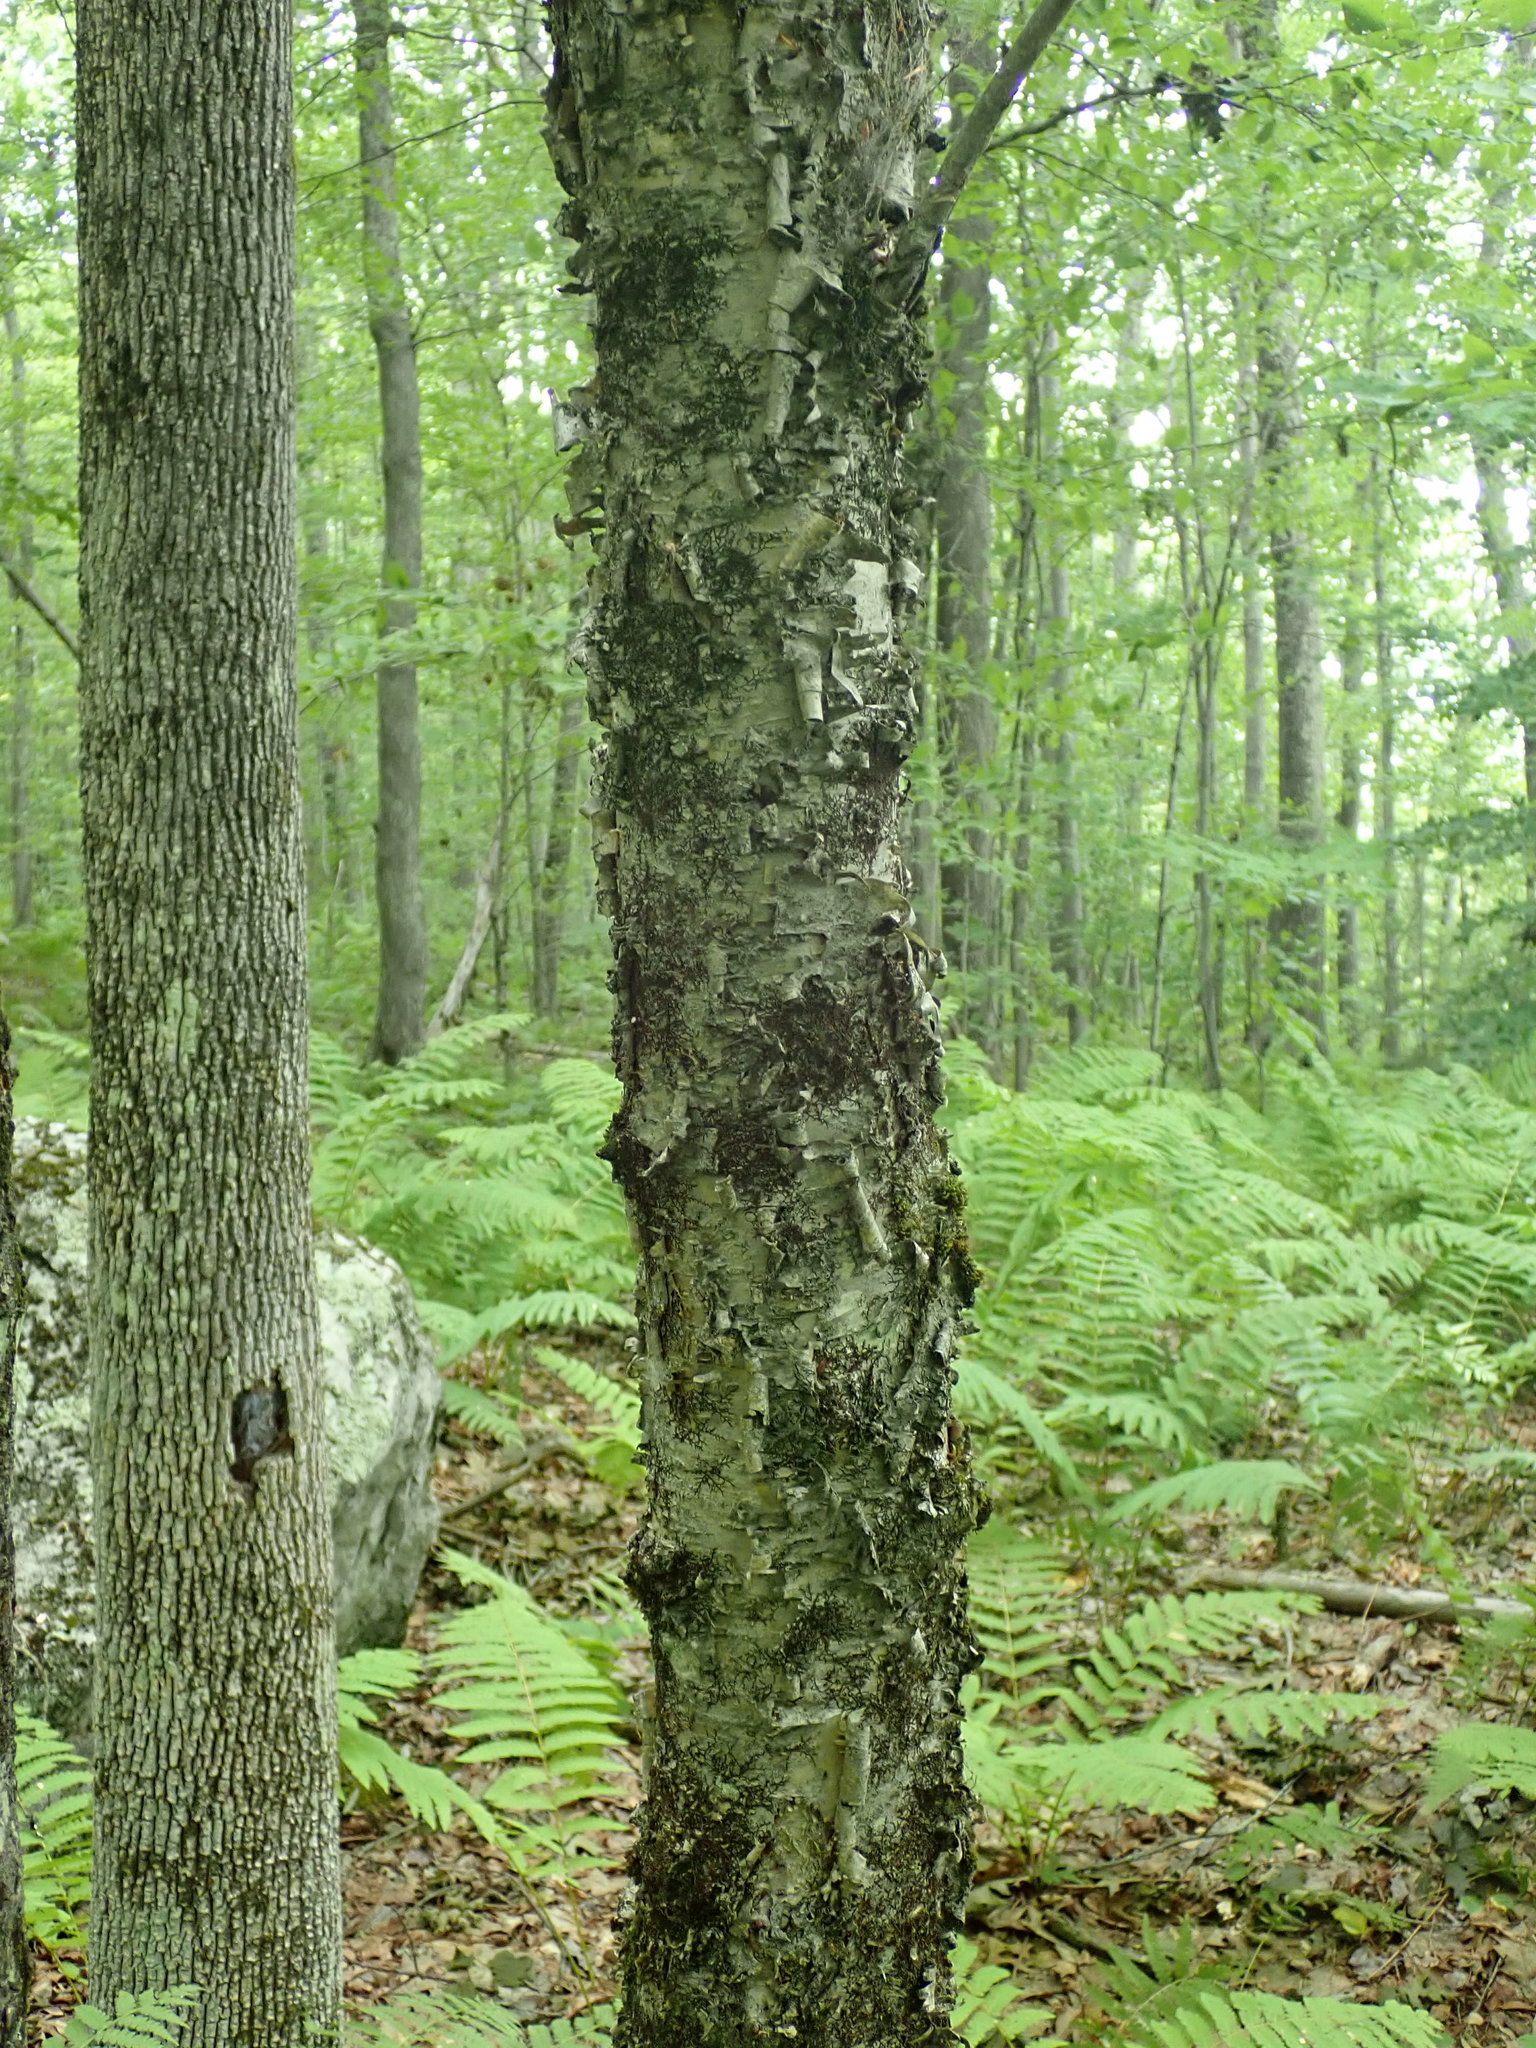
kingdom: Plantae
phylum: Tracheophyta
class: Magnoliopsida
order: Fagales
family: Betulaceae
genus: Betula
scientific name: Betula alleghaniensis
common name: Yellow birch
